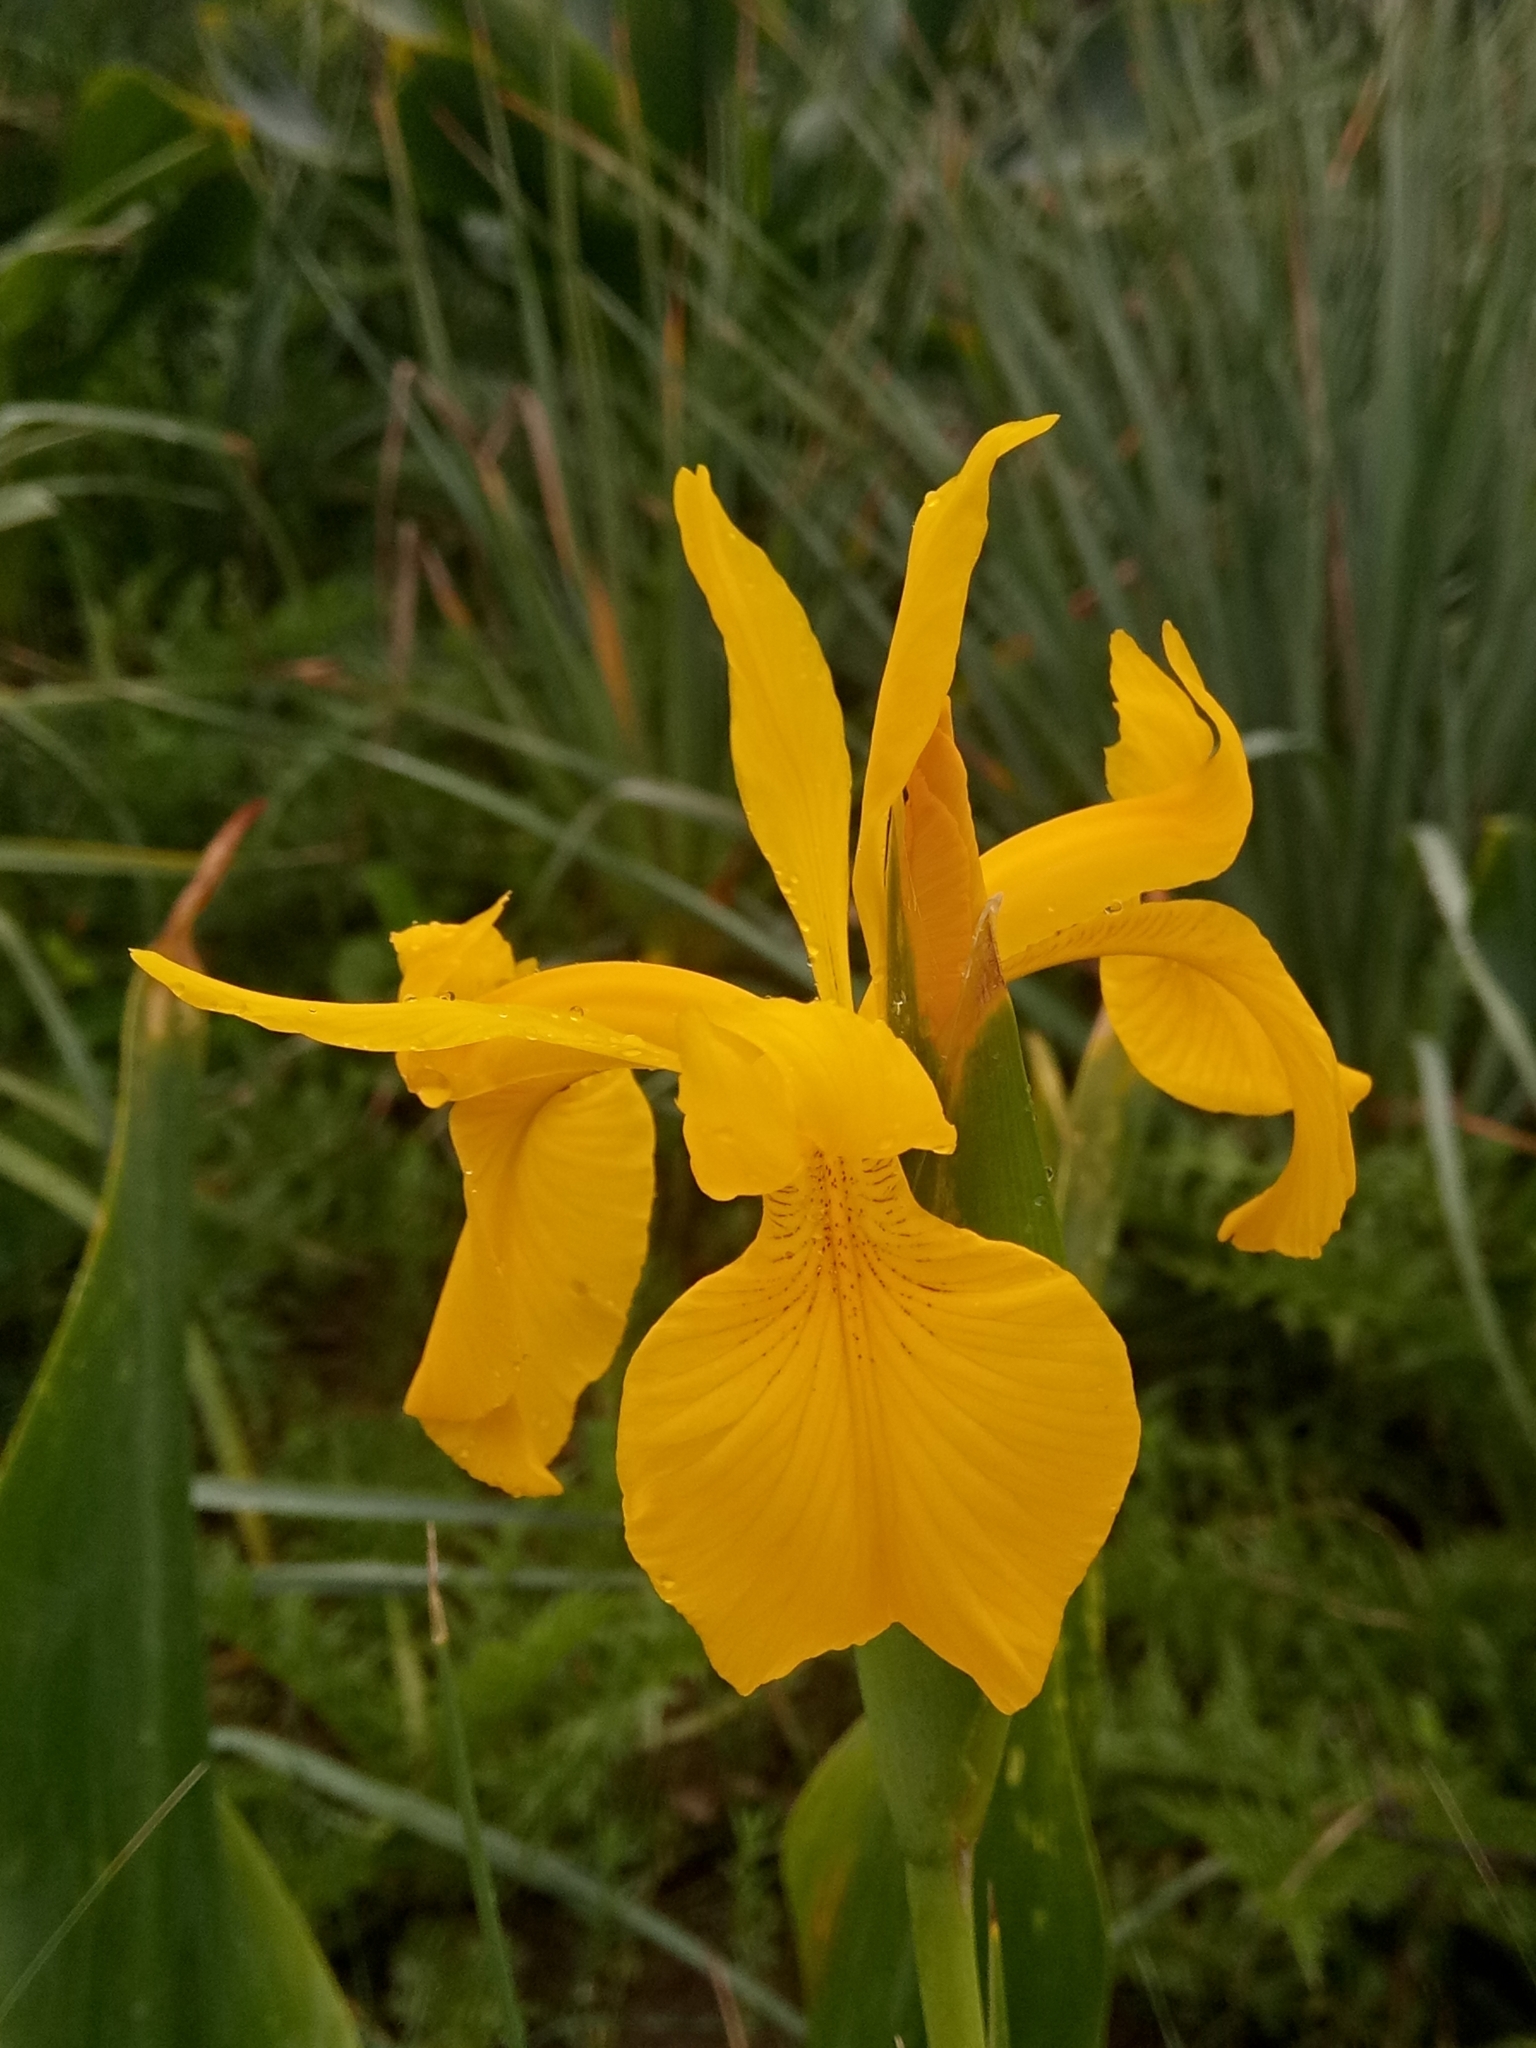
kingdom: Plantae
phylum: Tracheophyta
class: Liliopsida
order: Asparagales
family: Iridaceae
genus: Iris
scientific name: Iris juncea
